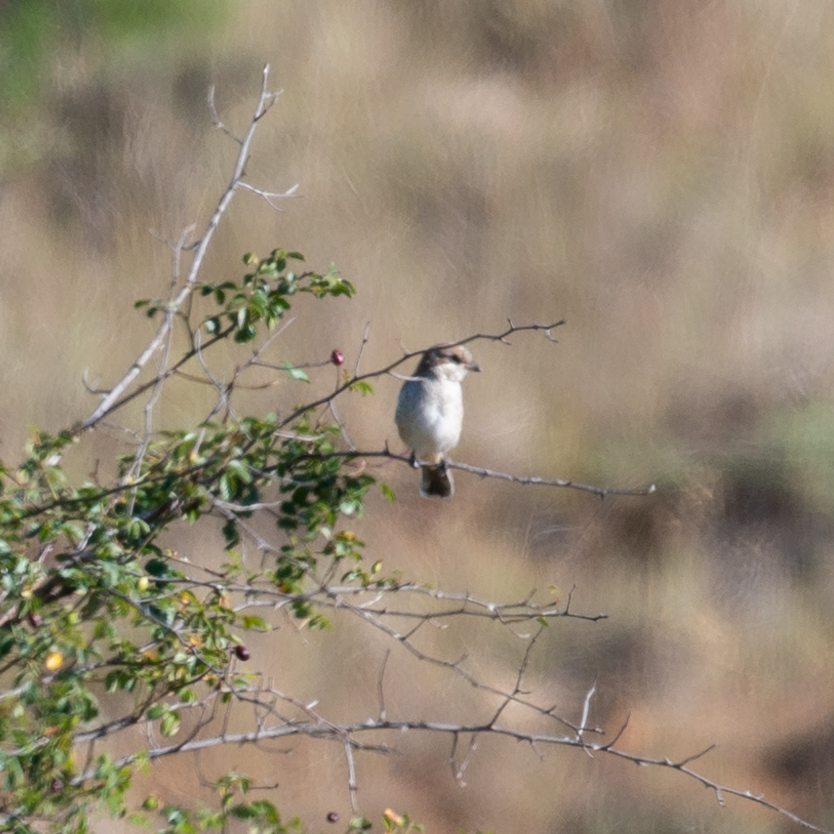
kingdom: Animalia
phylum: Chordata
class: Aves
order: Passeriformes
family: Laniidae
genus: Lanius
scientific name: Lanius collurio
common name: Red-backed shrike
